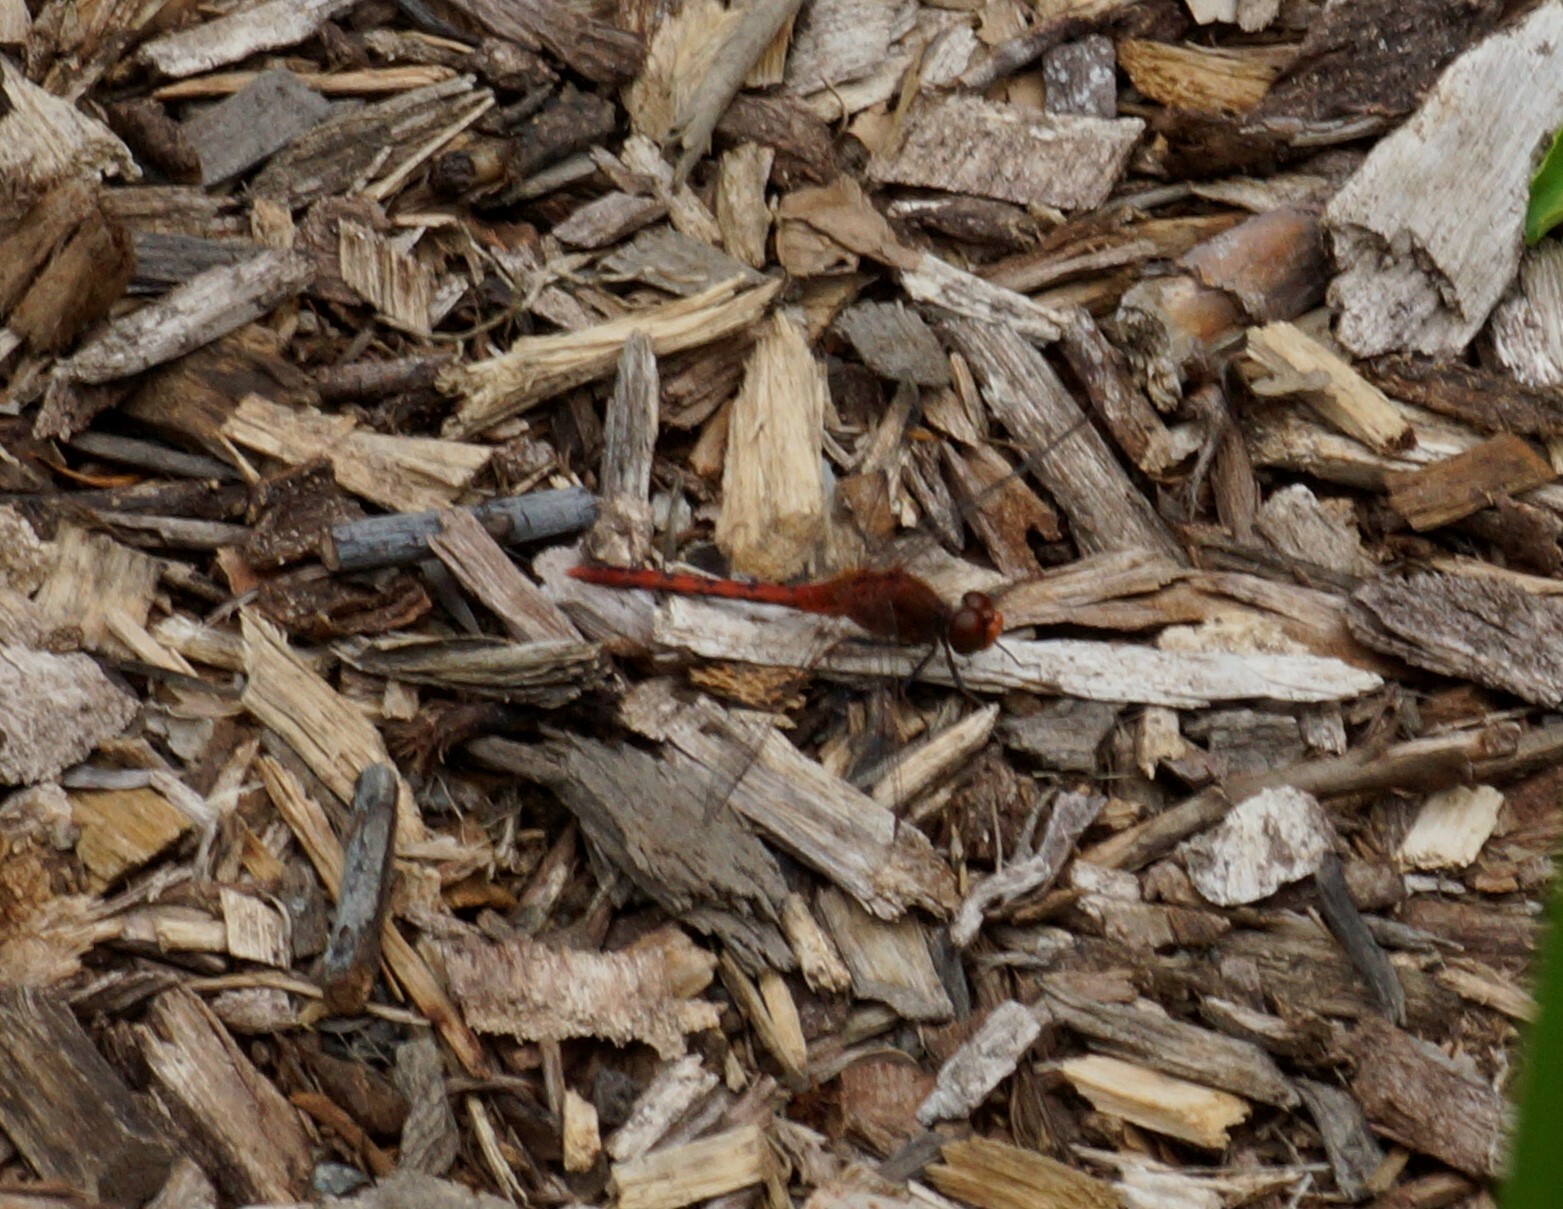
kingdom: Animalia
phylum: Arthropoda
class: Insecta
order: Odonata
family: Libellulidae
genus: Diplacodes
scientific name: Diplacodes bipunctata
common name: Red percher dragonfly
